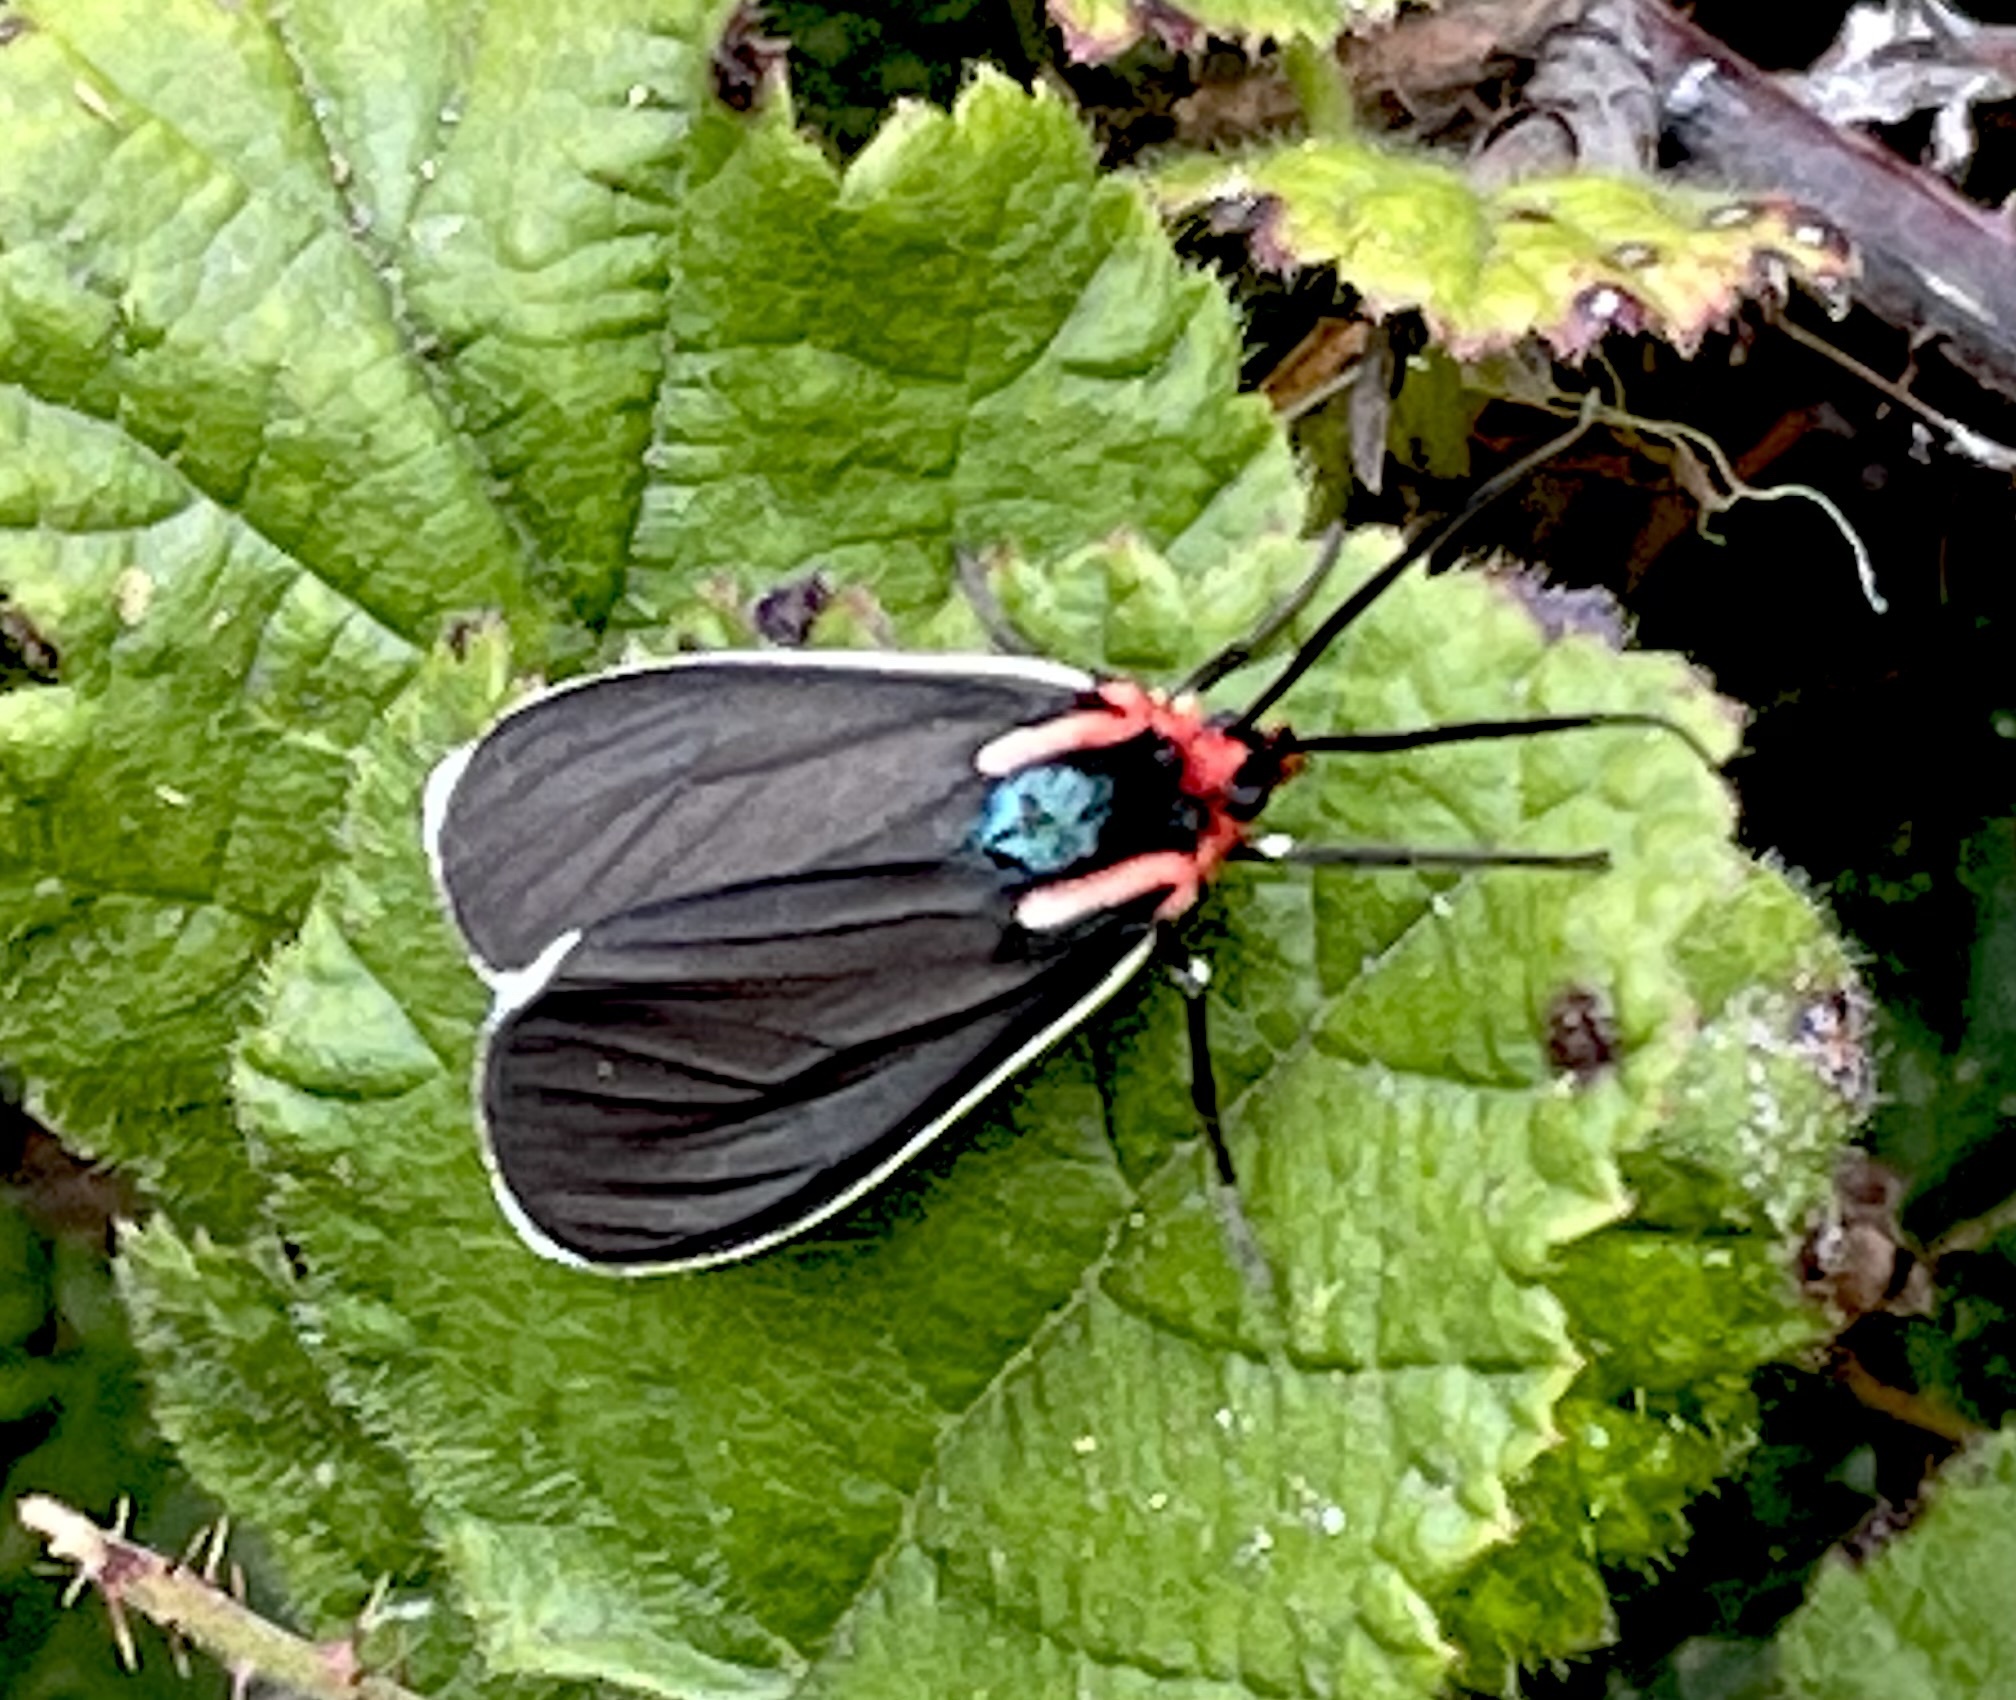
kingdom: Animalia
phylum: Arthropoda
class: Insecta
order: Lepidoptera
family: Erebidae
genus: Ctenucha
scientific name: Ctenucha multifaria
